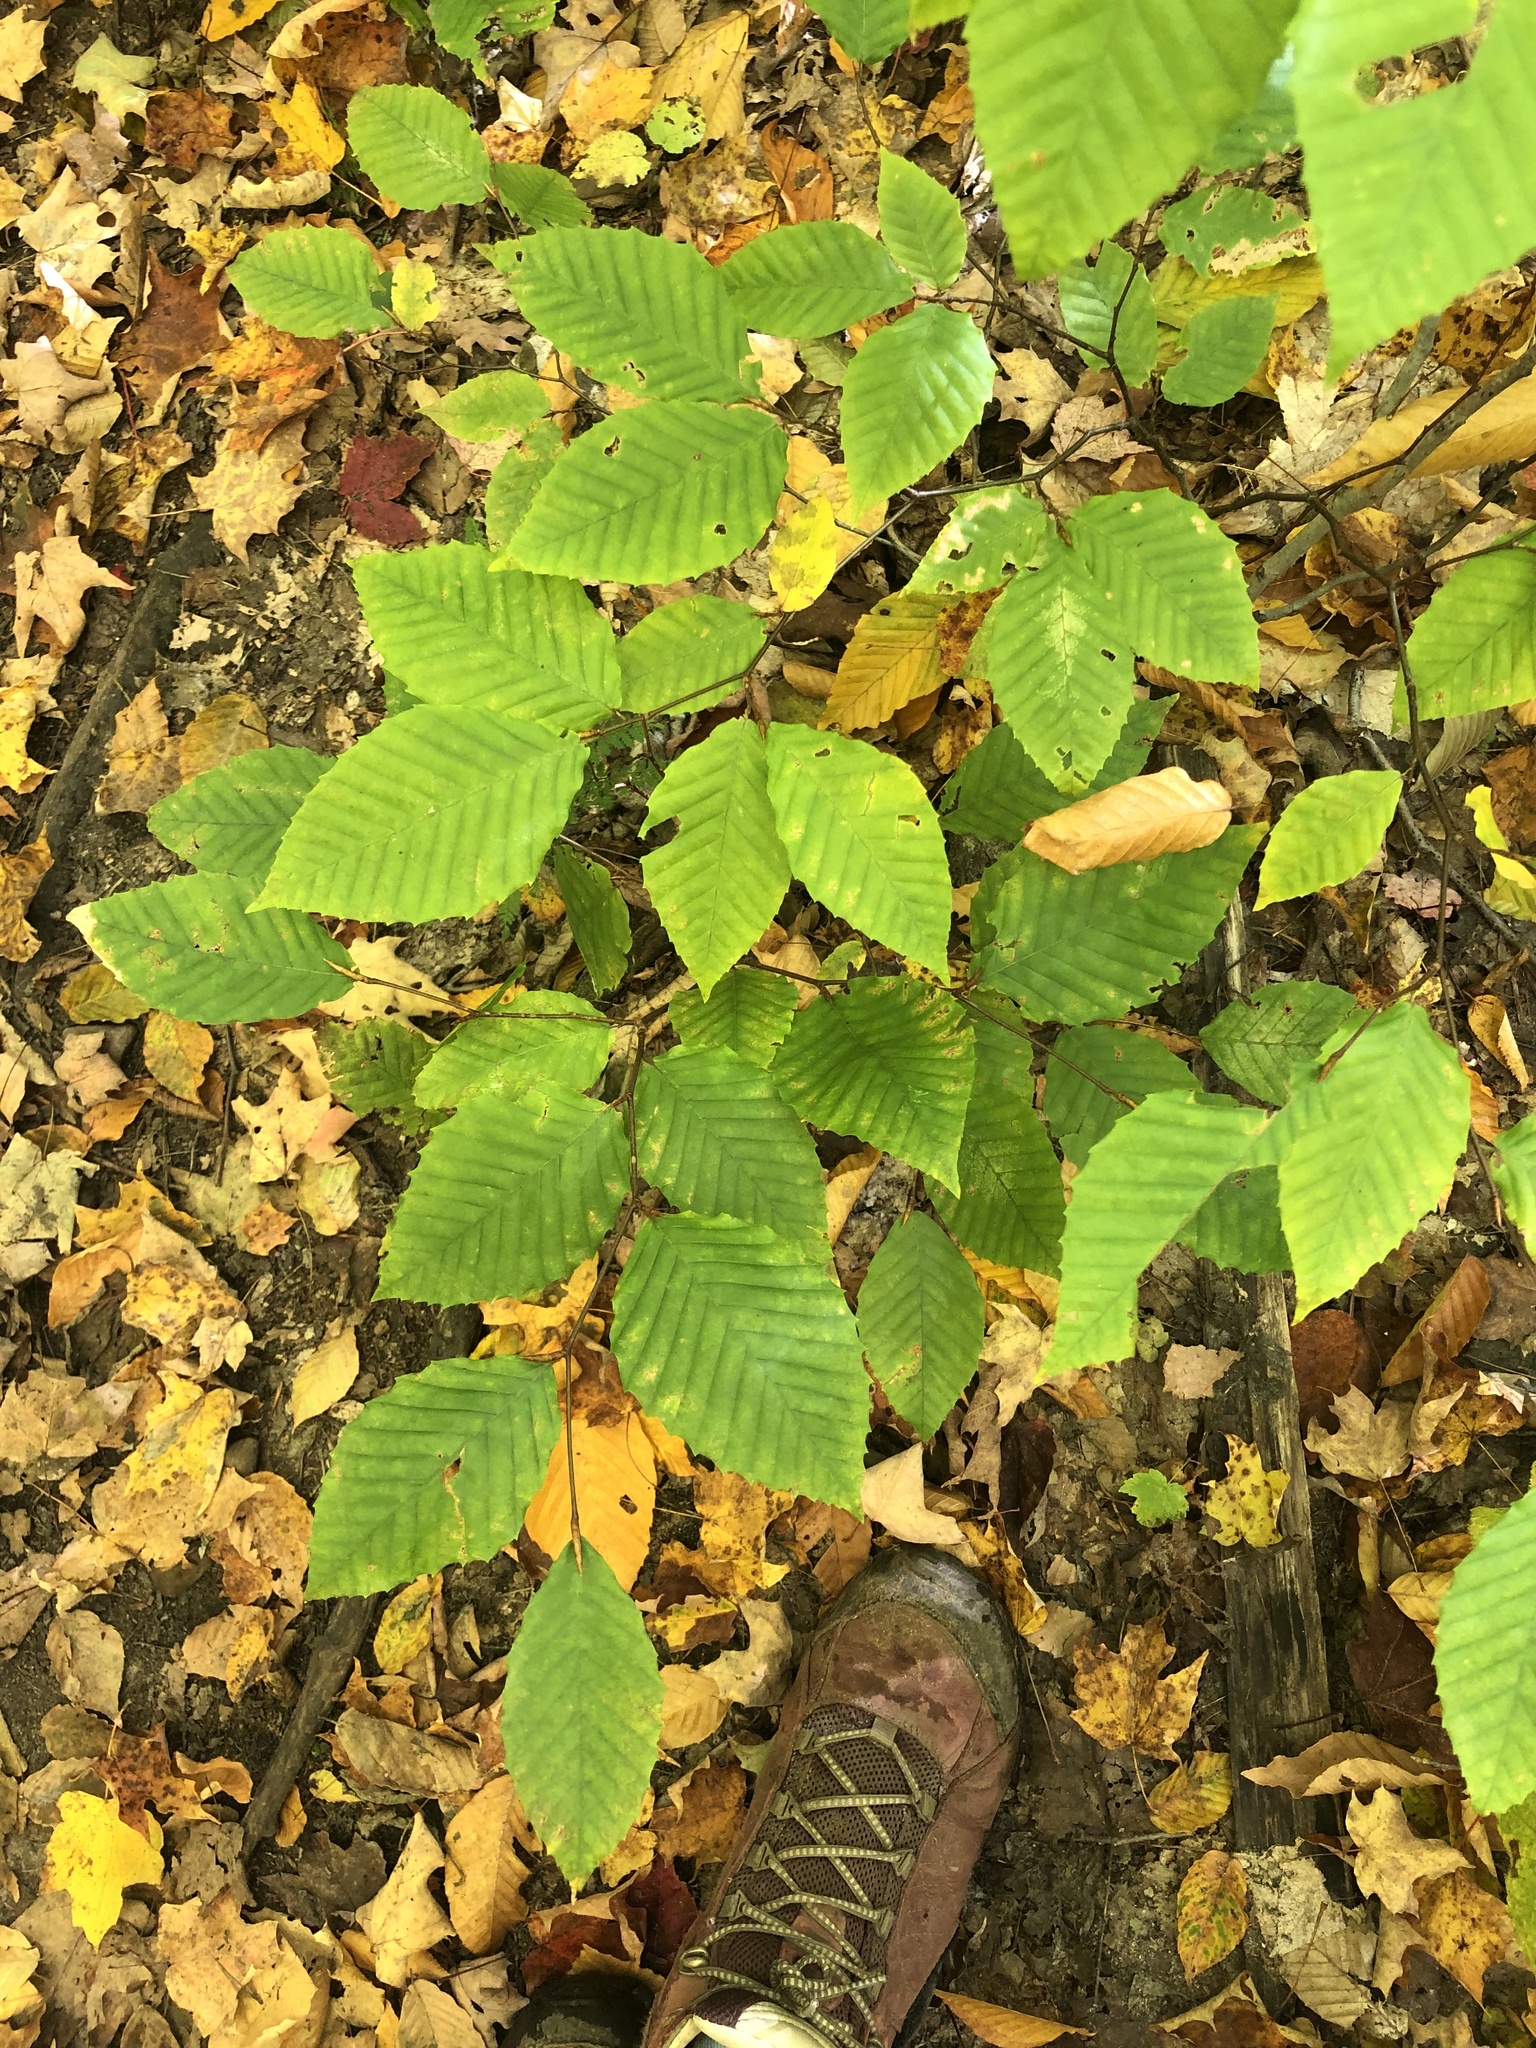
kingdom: Plantae
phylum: Tracheophyta
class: Magnoliopsida
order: Fagales
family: Fagaceae
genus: Fagus
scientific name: Fagus grandifolia
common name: American beech
